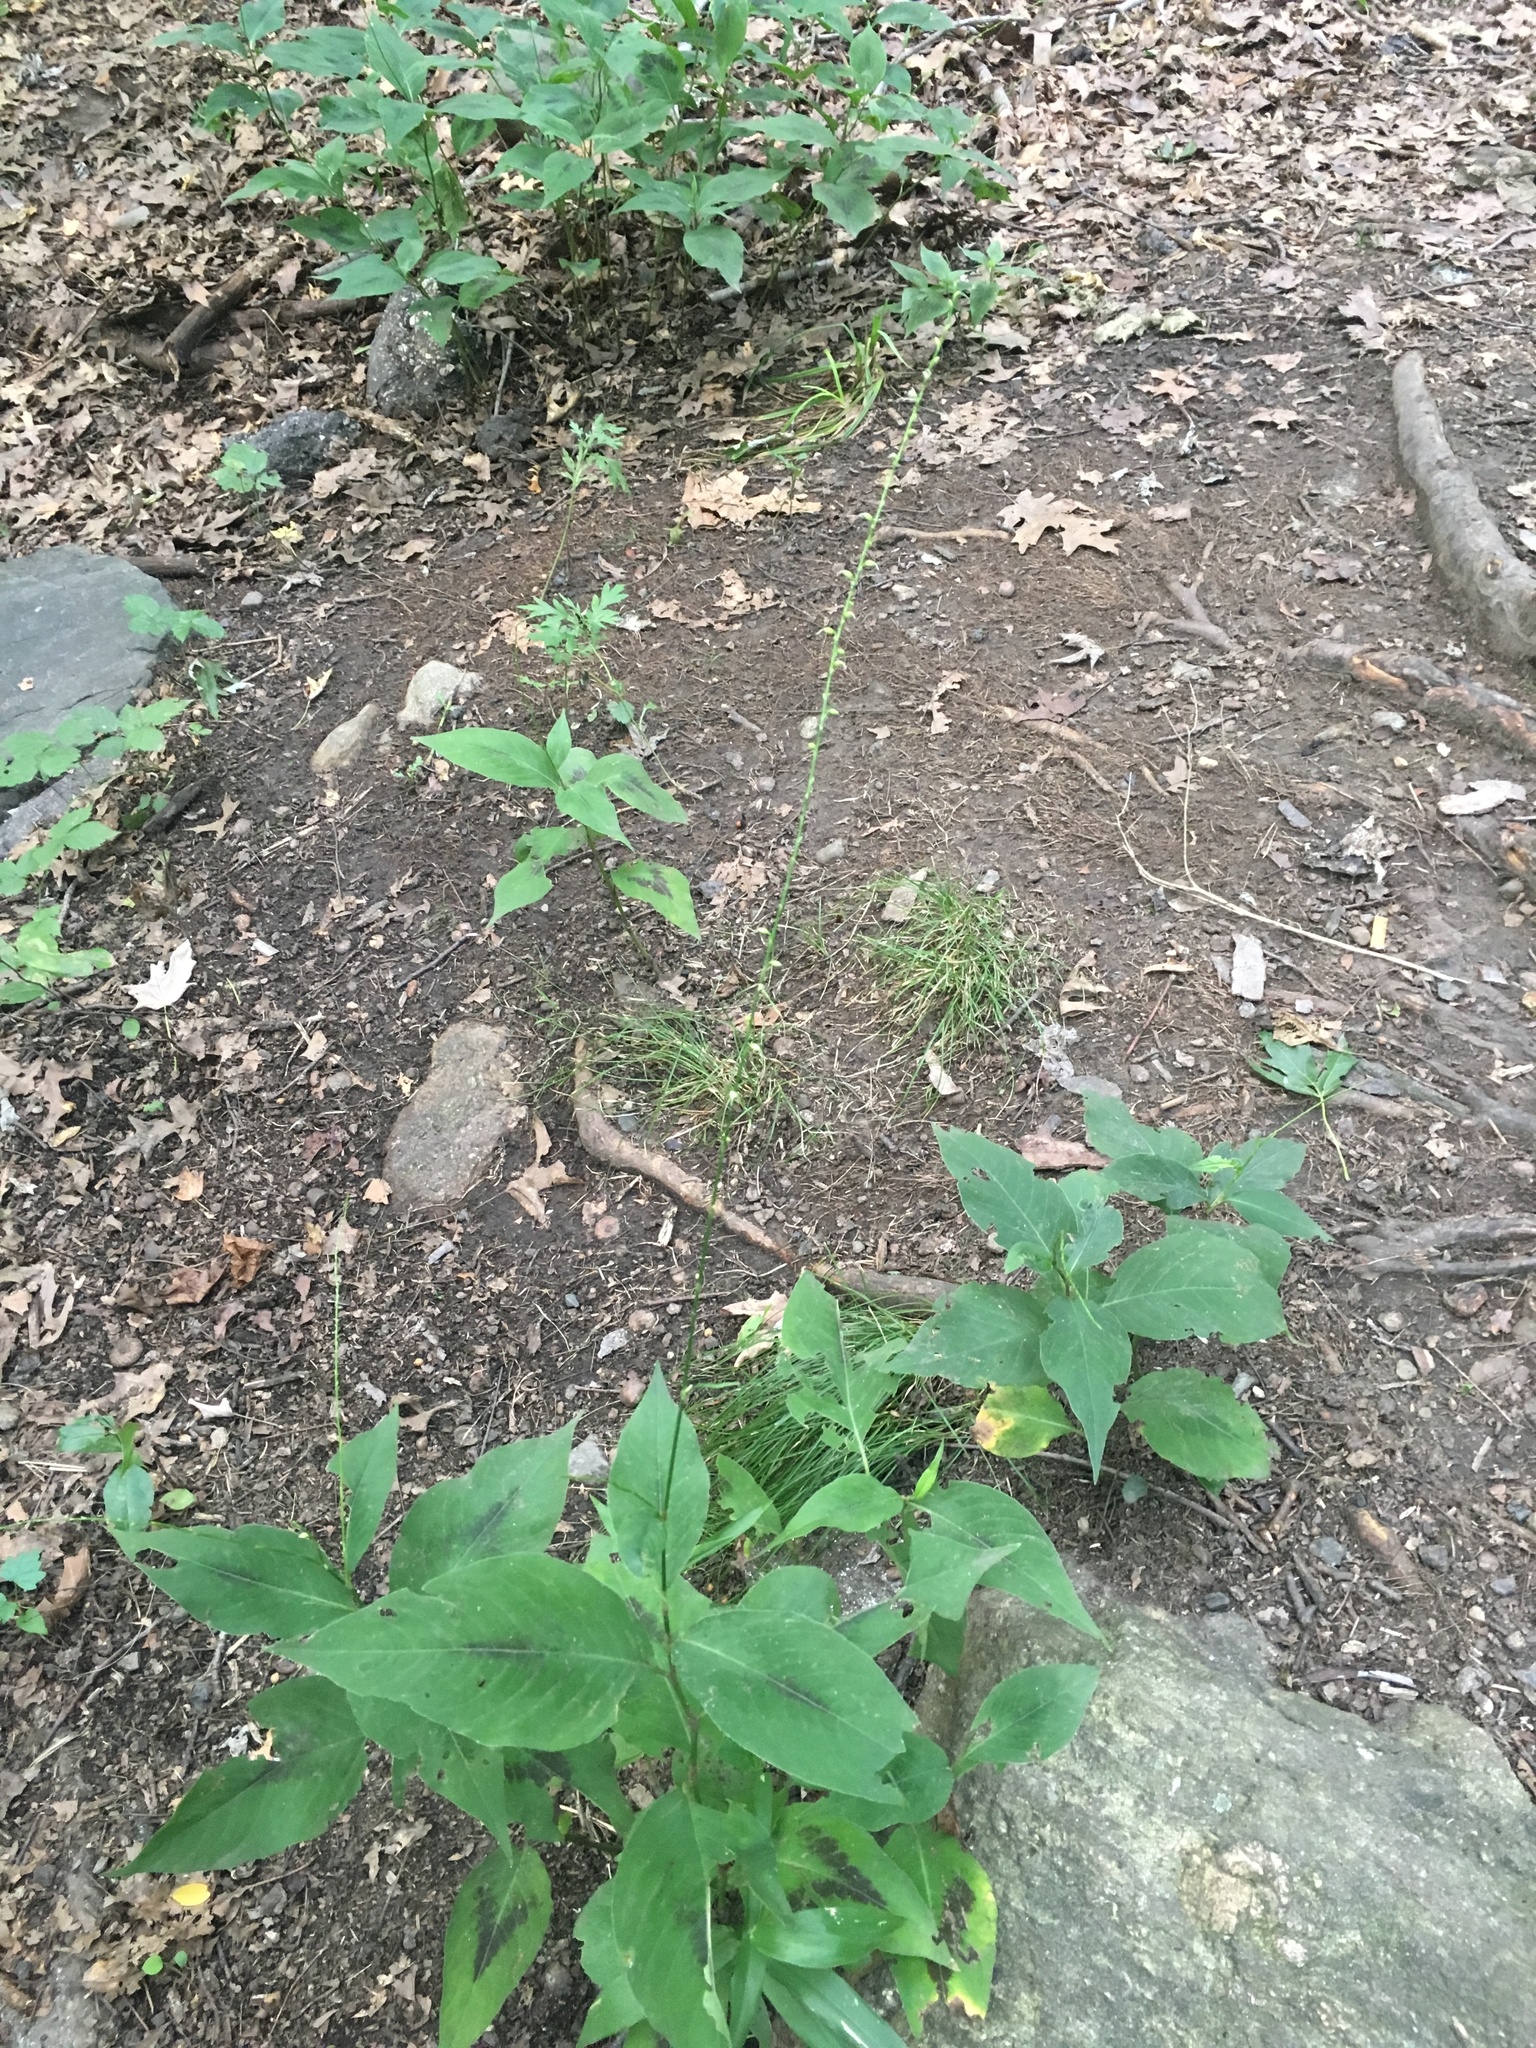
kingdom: Plantae
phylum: Tracheophyta
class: Magnoliopsida
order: Caryophyllales
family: Polygonaceae
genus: Persicaria
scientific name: Persicaria virginiana
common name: Jumpseed
